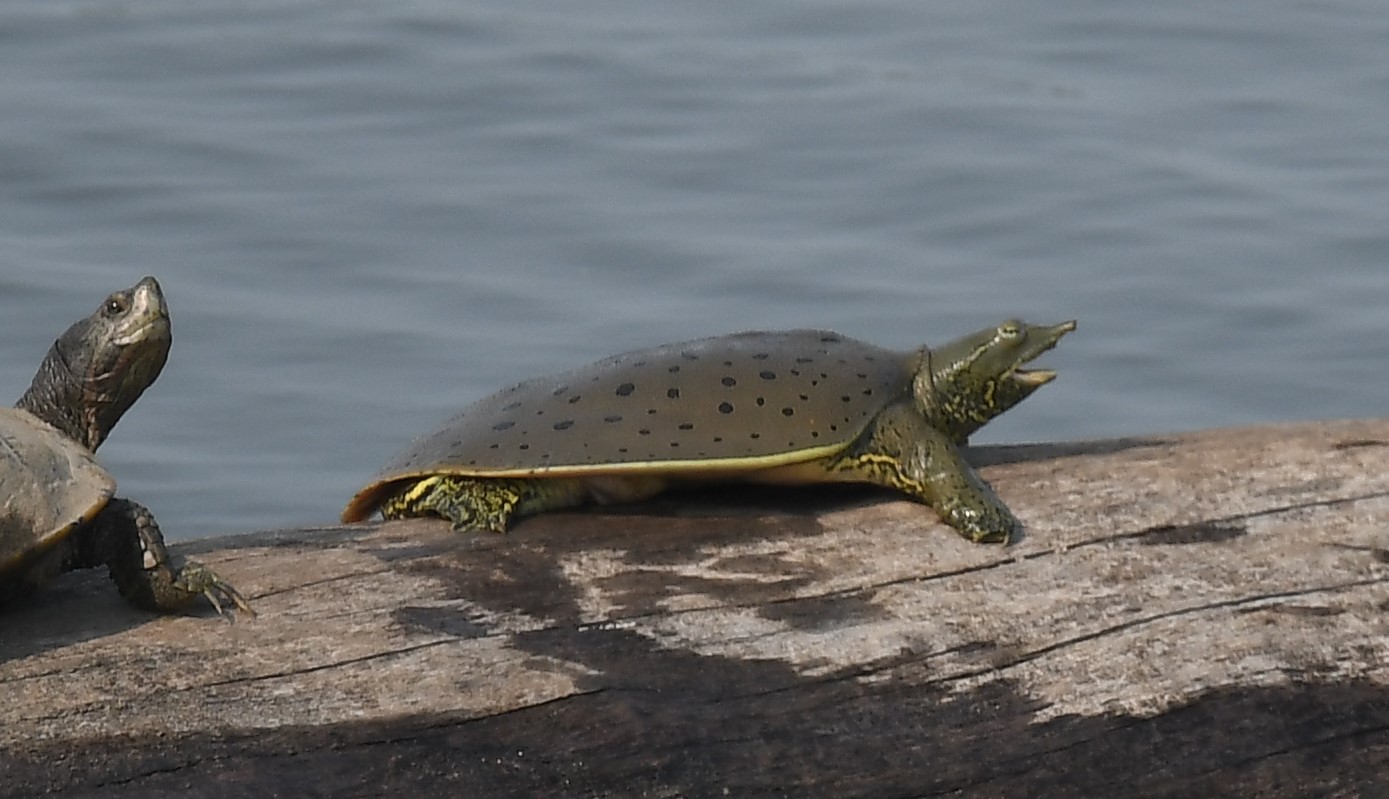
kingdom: Animalia
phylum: Chordata
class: Testudines
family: Trionychidae
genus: Apalone
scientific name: Apalone spinifera
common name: Spiny softshell turtle
